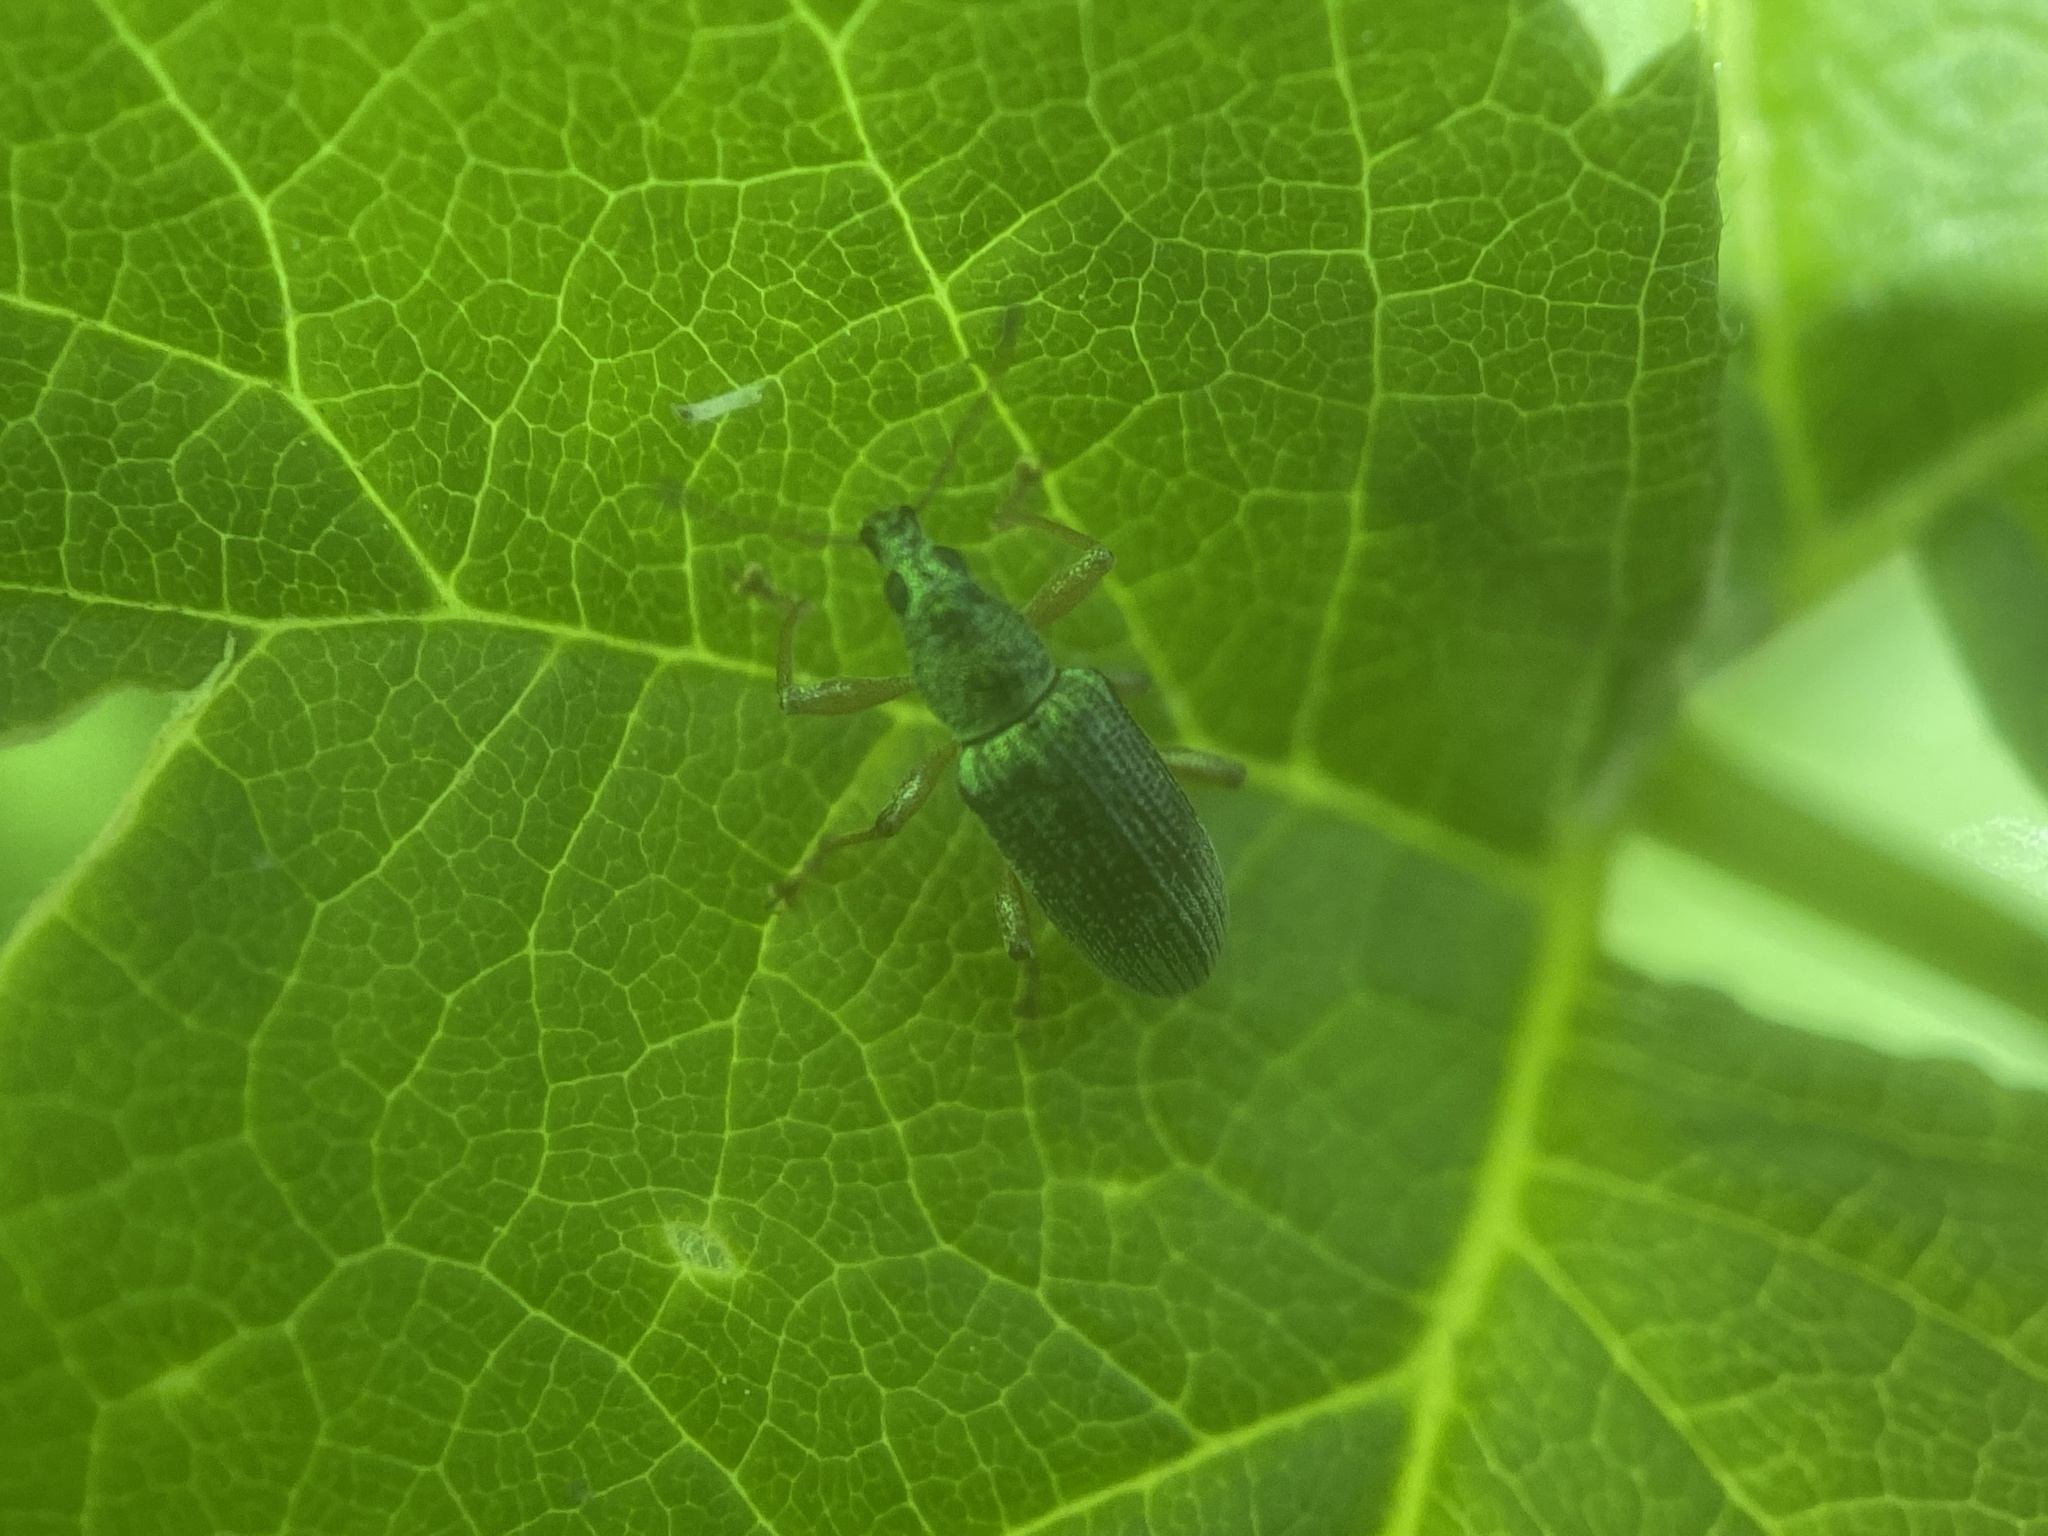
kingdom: Animalia
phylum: Arthropoda
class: Insecta
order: Coleoptera
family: Curculionidae
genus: Polydrusus
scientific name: Polydrusus formosus
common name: Weevil
